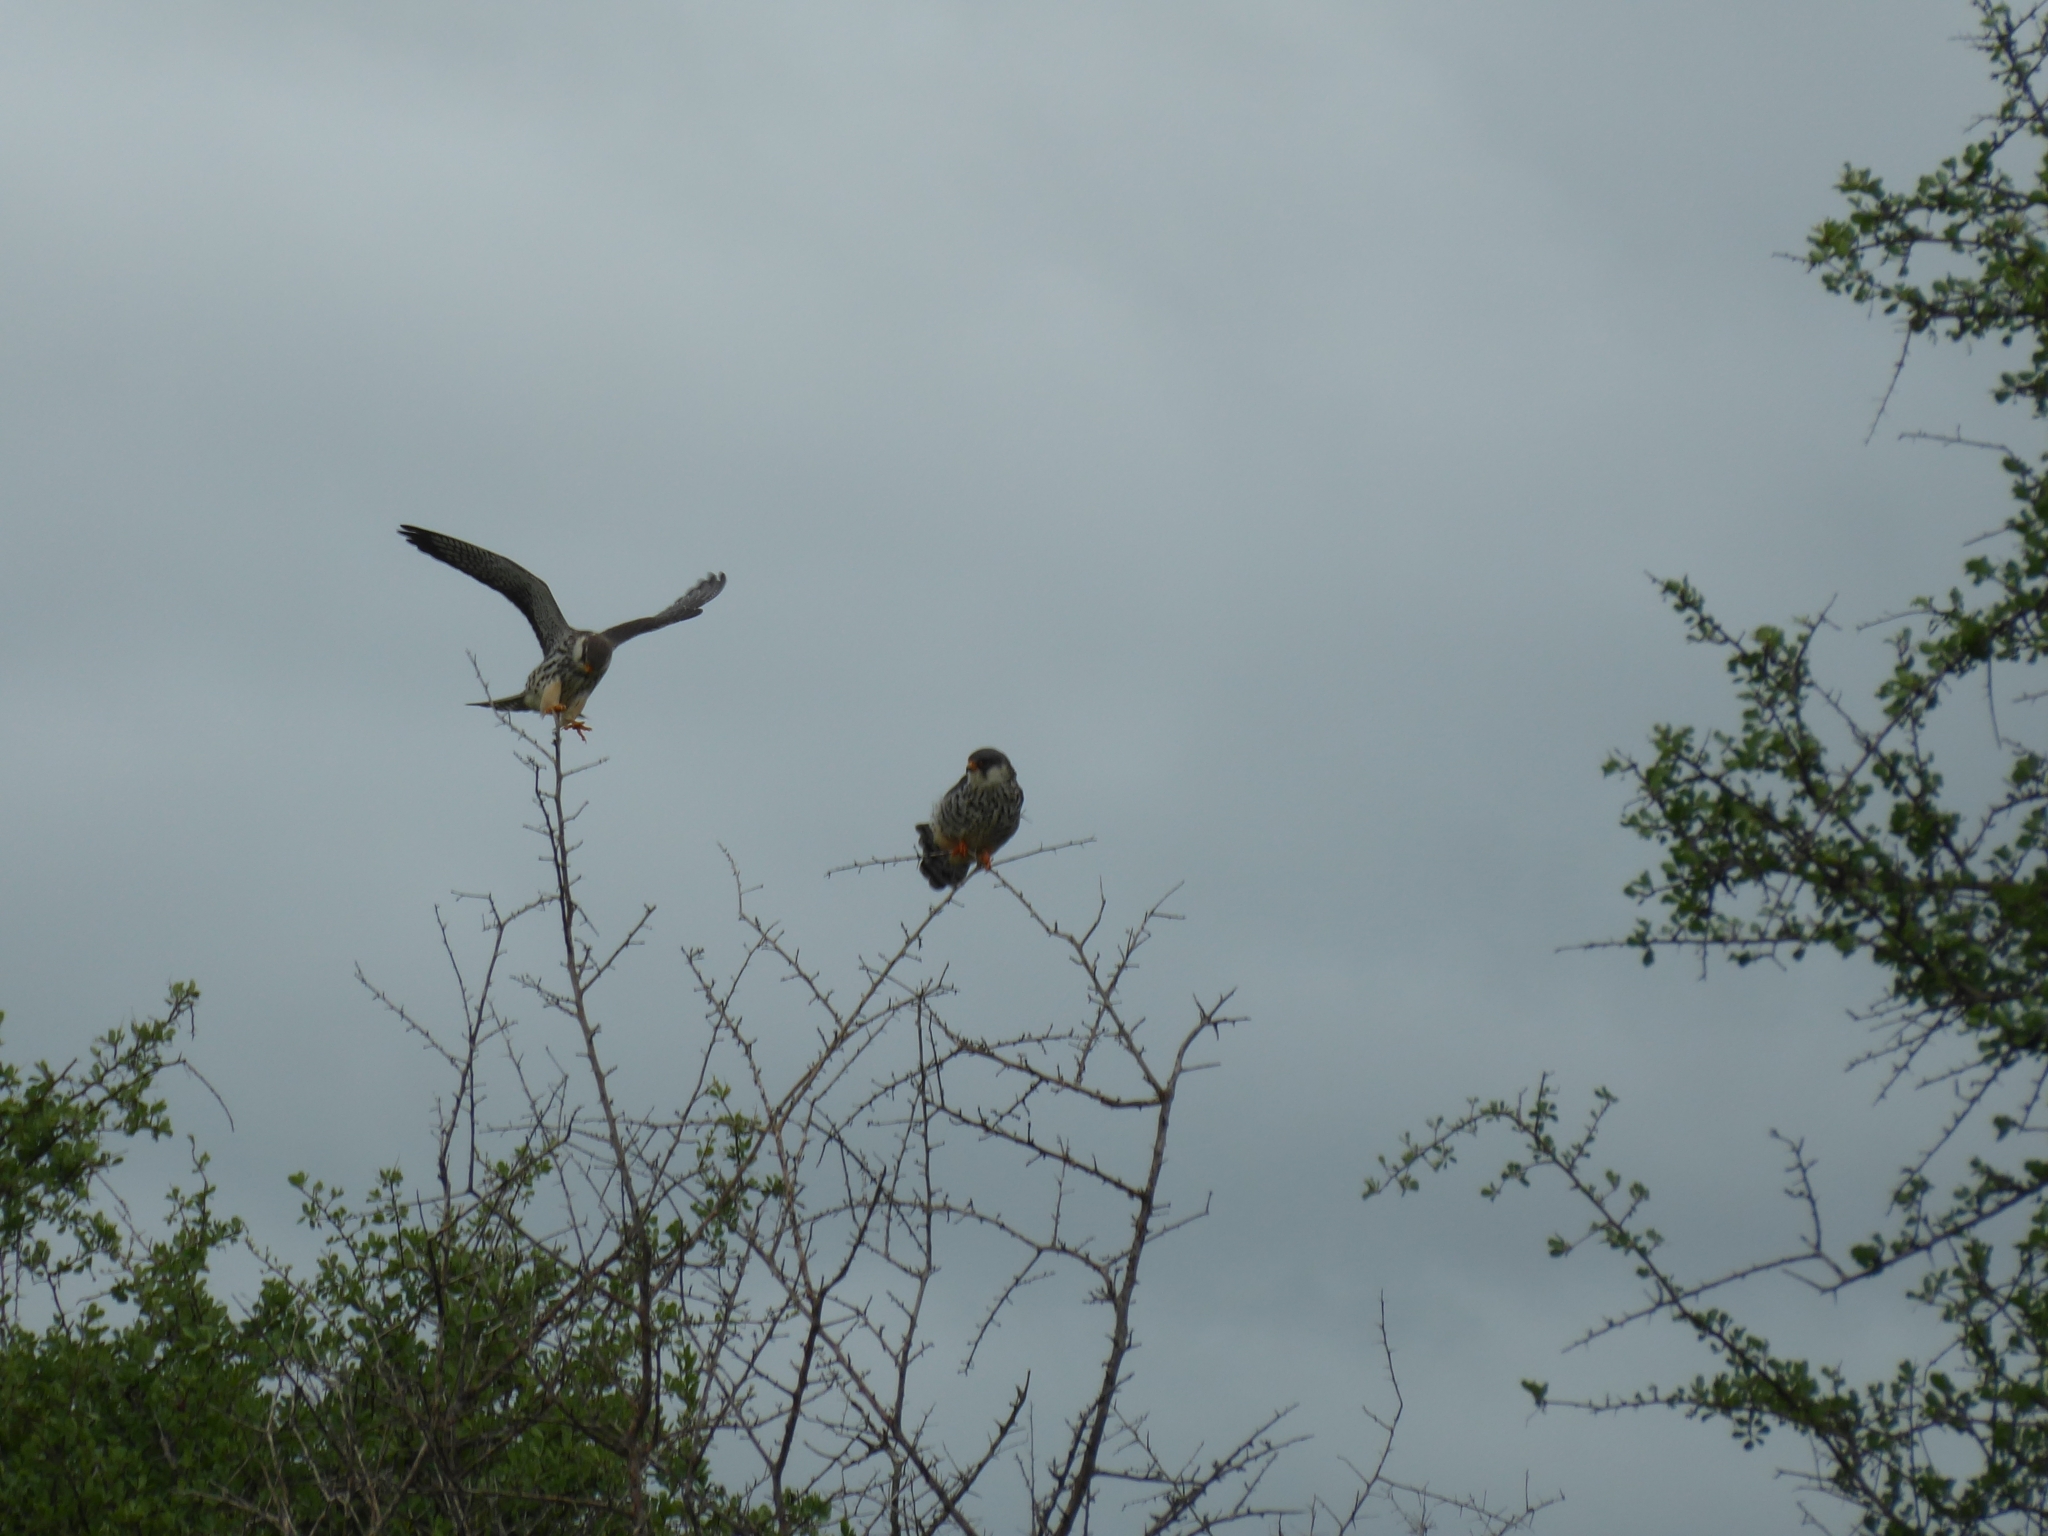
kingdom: Animalia
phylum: Chordata
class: Aves
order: Falconiformes
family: Falconidae
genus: Falco
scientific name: Falco amurensis
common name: Amur falcon
